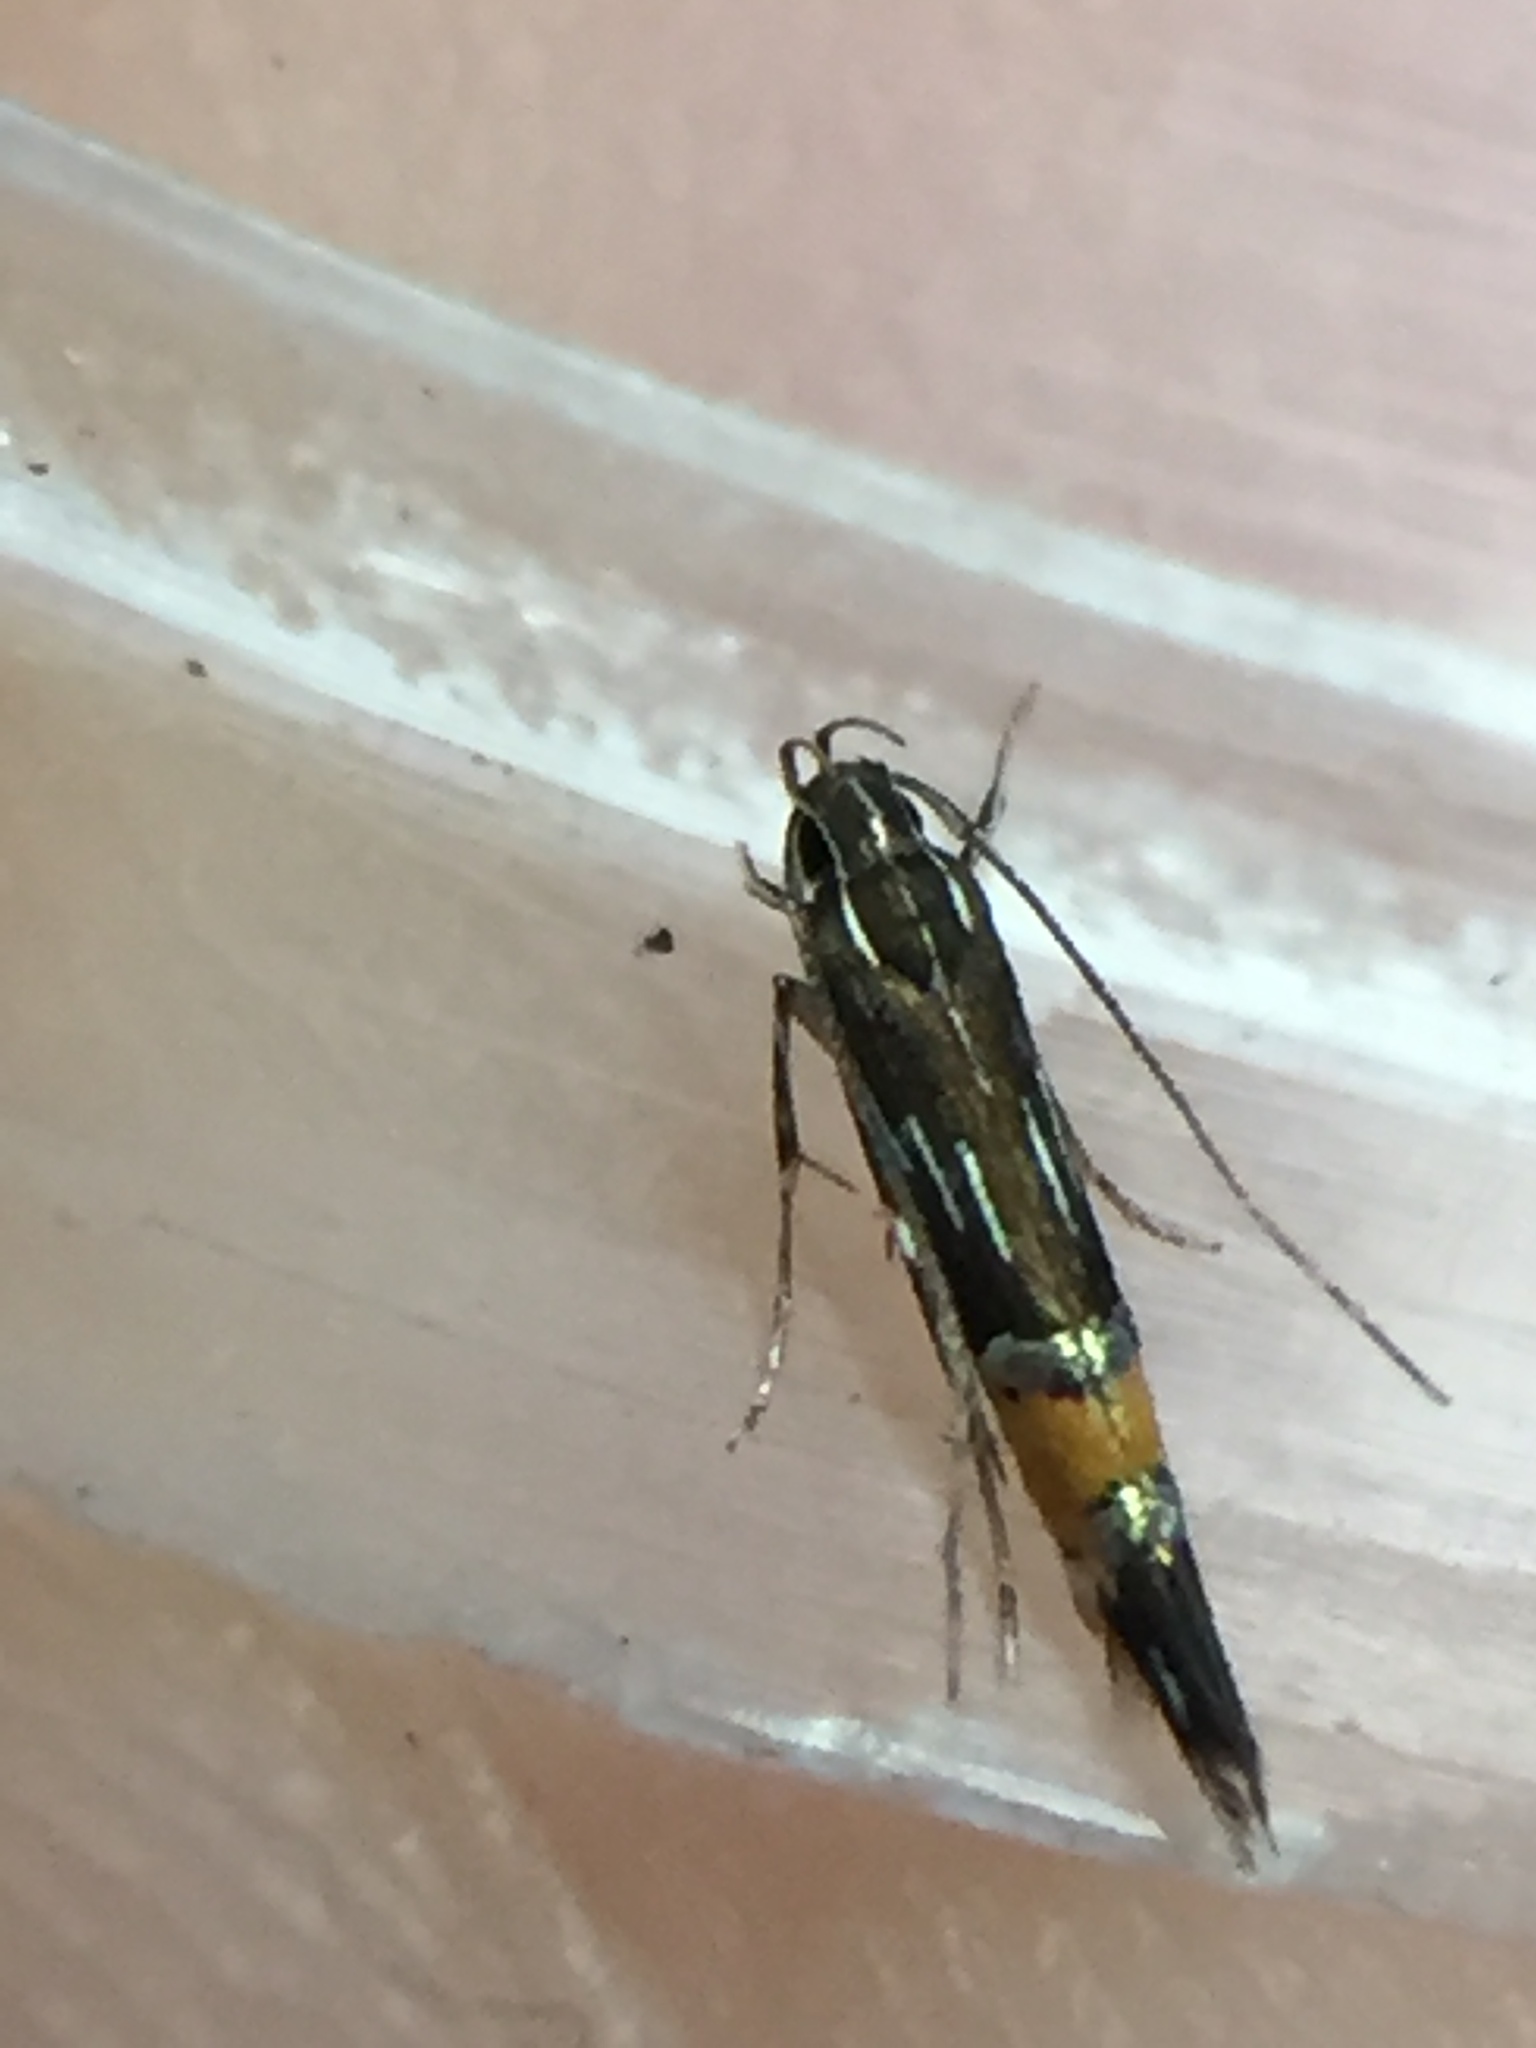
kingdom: Animalia
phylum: Arthropoda
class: Insecta
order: Lepidoptera
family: Cosmopterigidae
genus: Cosmopterix
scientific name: Cosmopterix attenuatella
